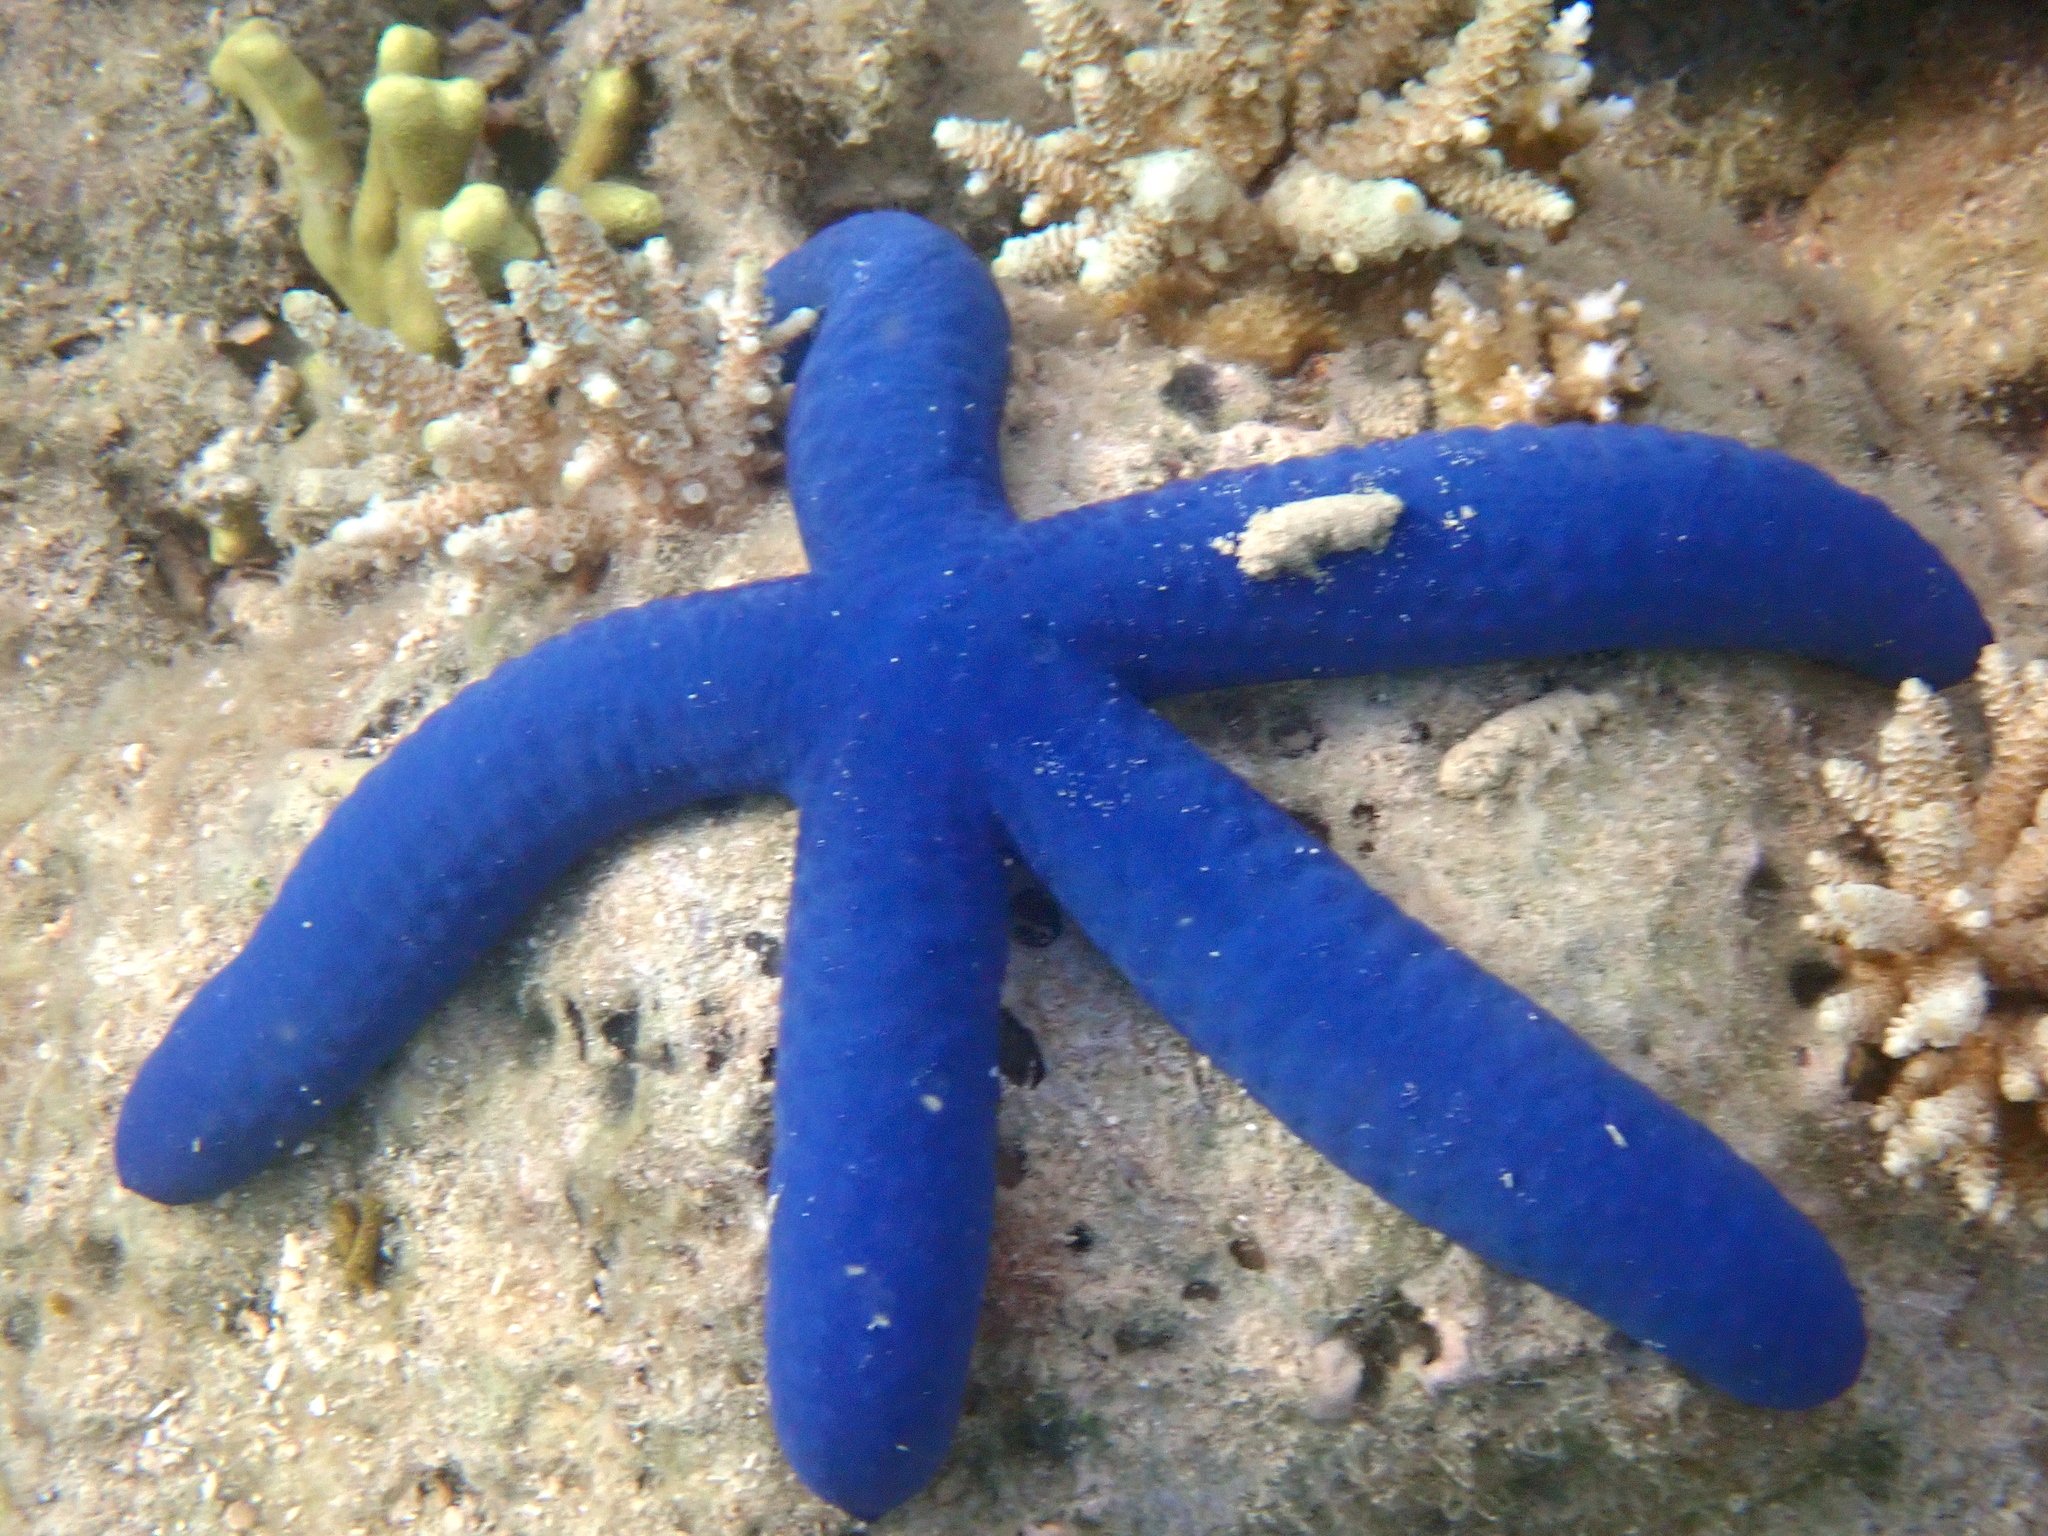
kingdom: Animalia
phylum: Echinodermata
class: Asteroidea
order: Valvatida
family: Ophidiasteridae
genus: Linckia
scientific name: Linckia laevigata
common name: Azure sea star
